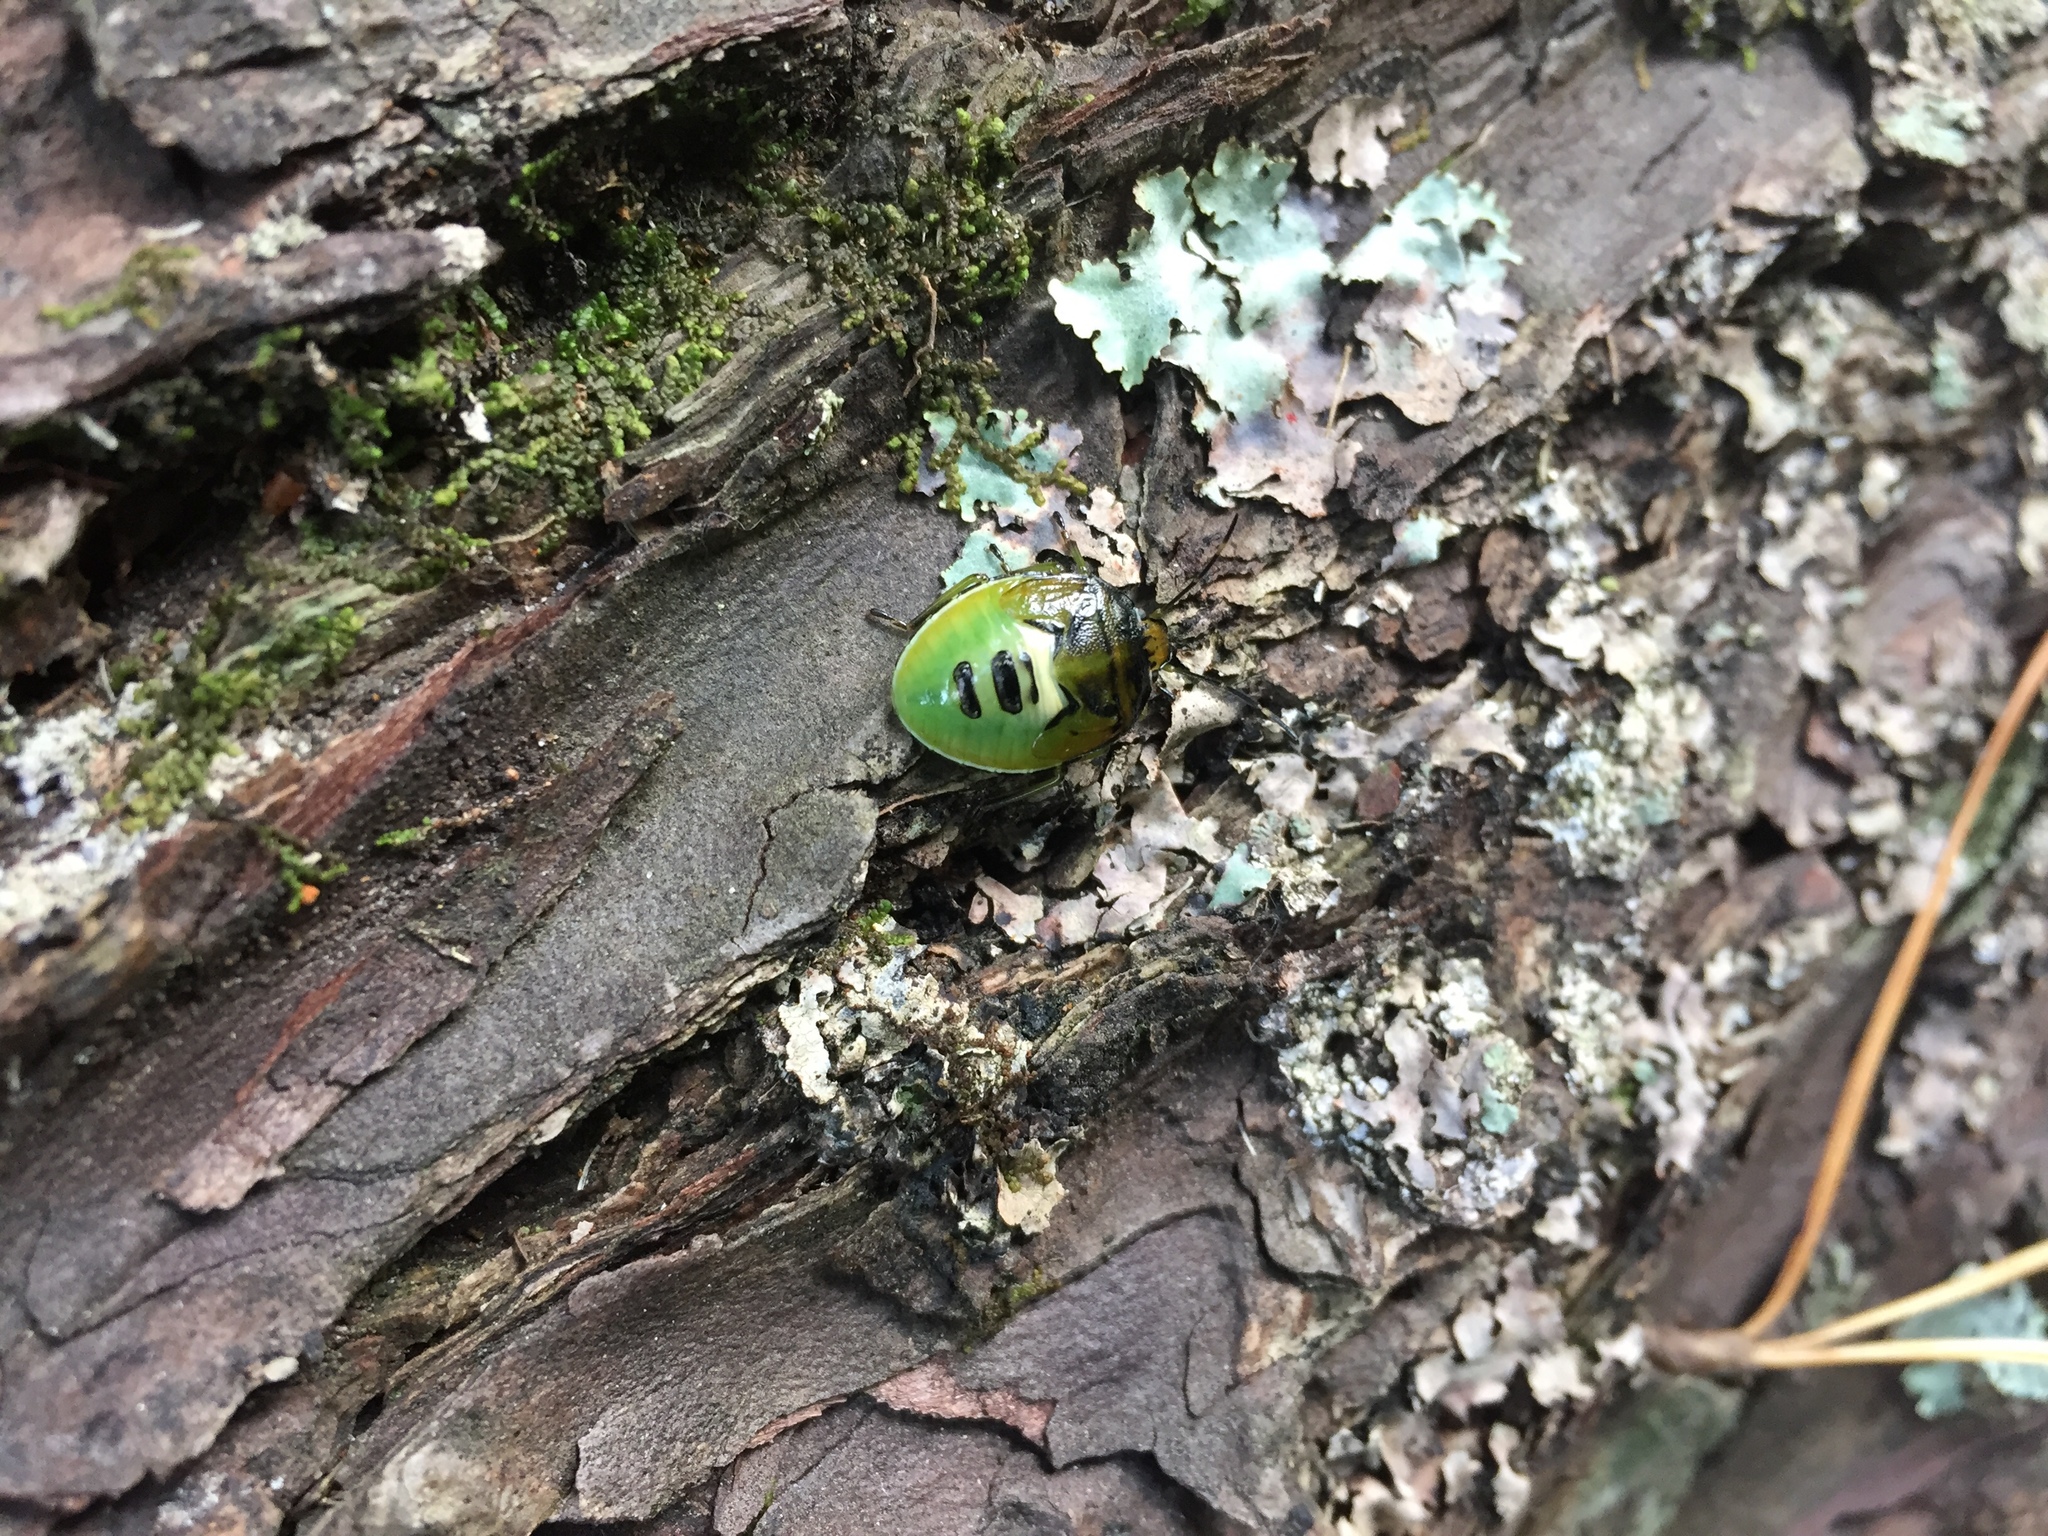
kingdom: Animalia
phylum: Arthropoda
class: Insecta
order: Hemiptera
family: Pentatomidae
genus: Glaucias
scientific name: Glaucias amyota
